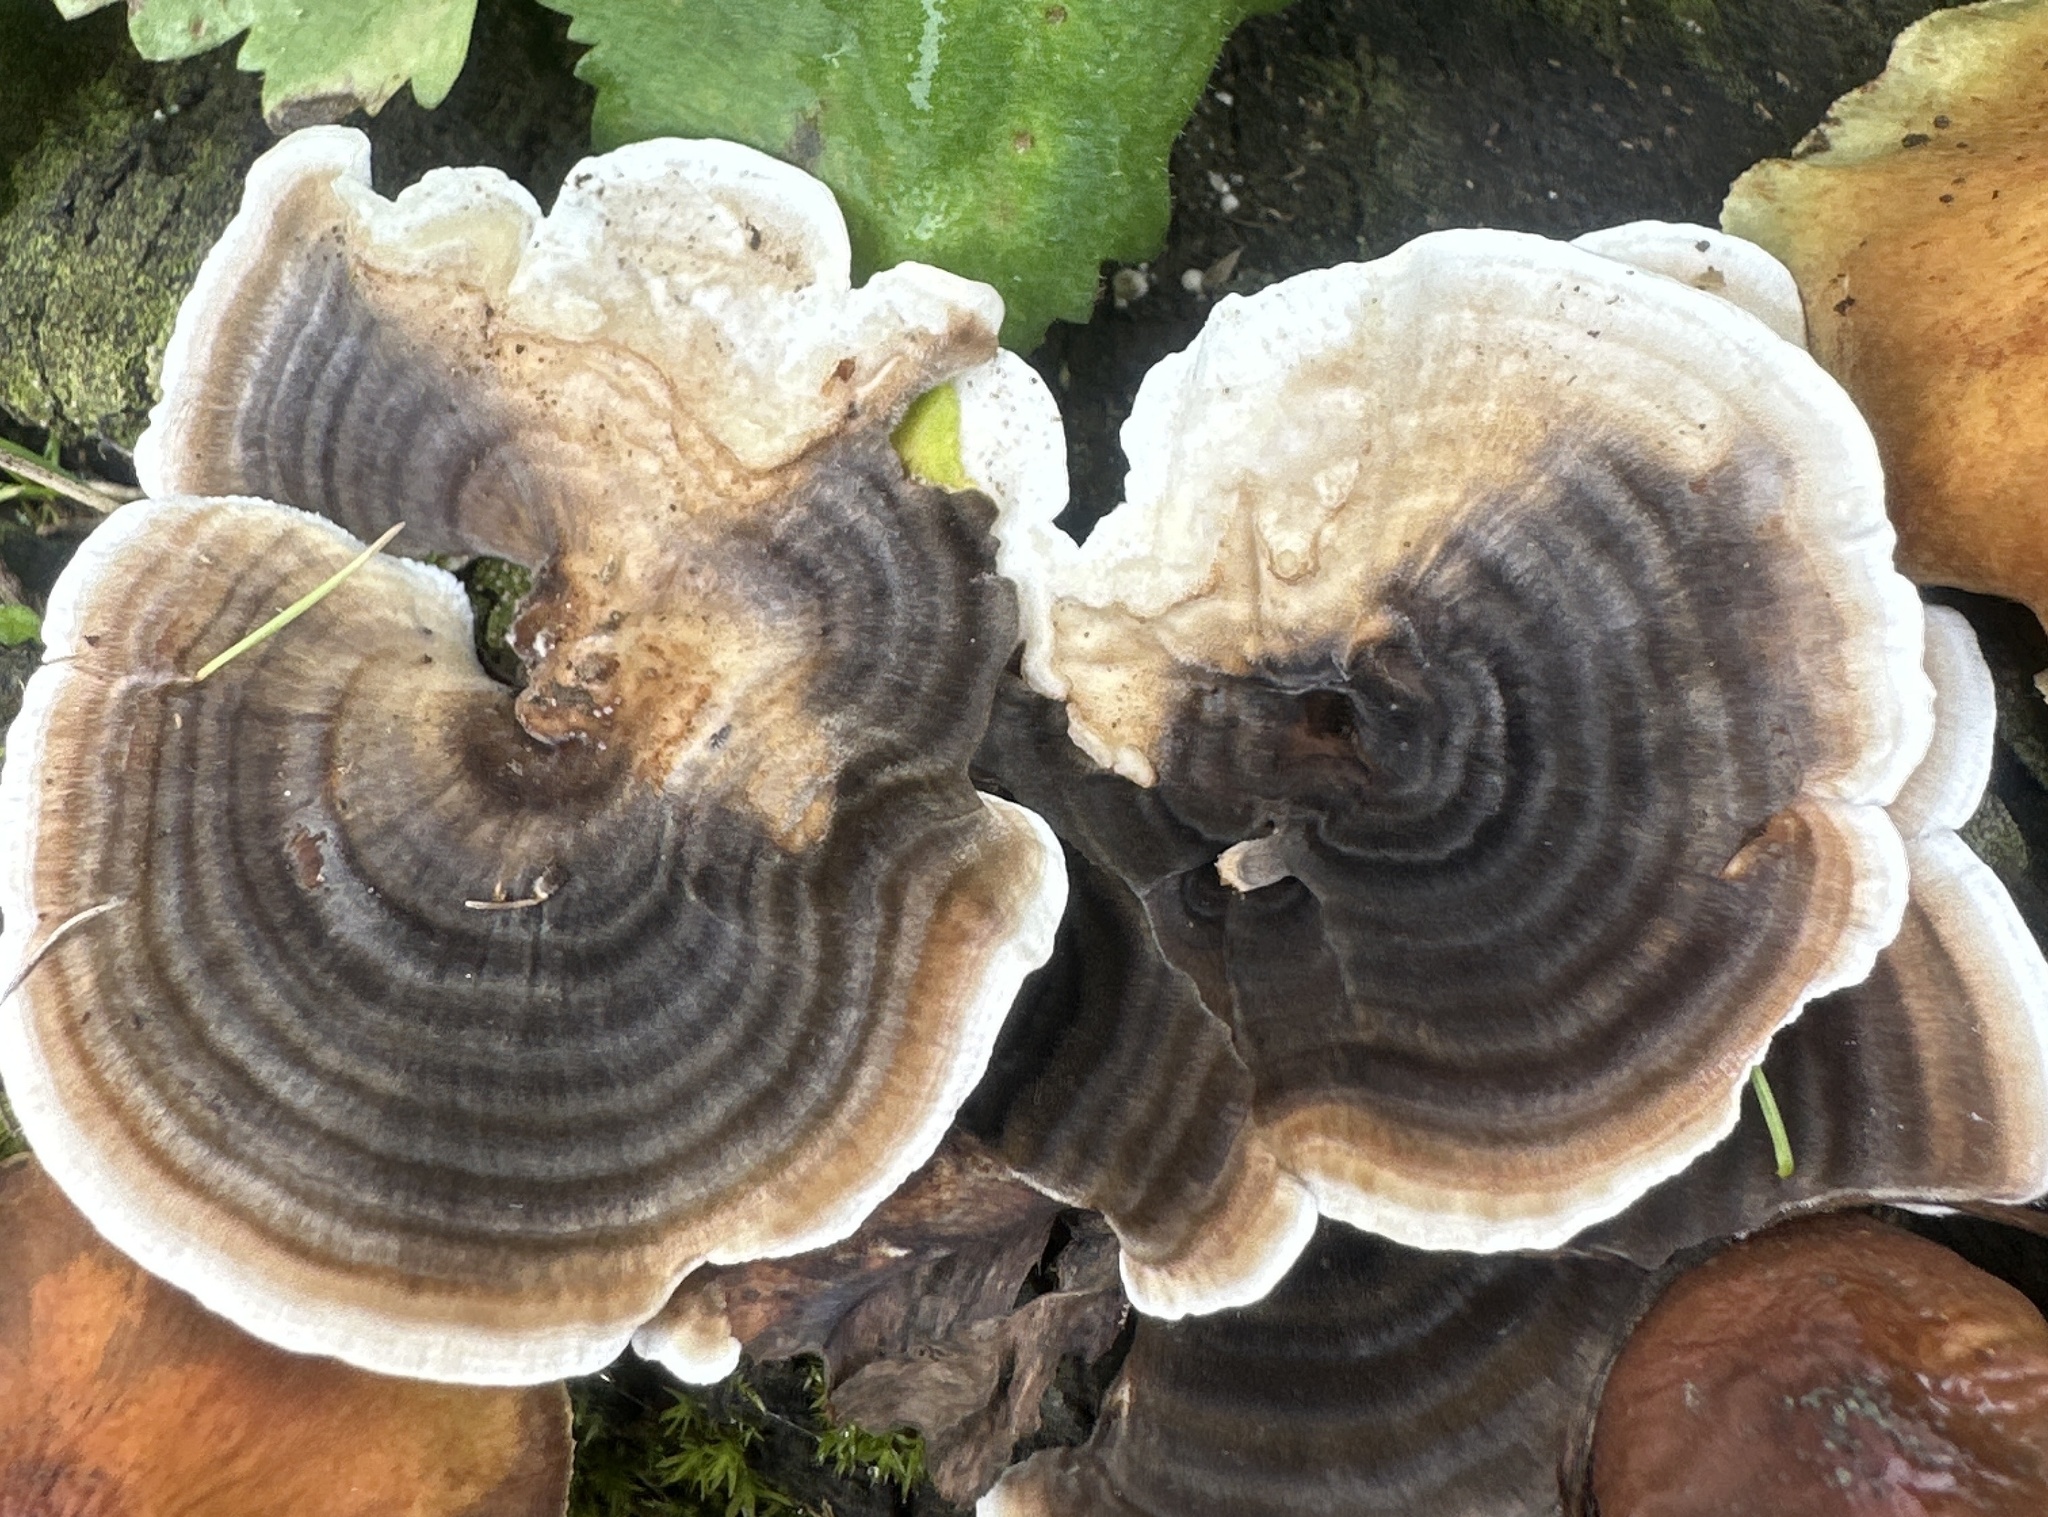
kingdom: Fungi
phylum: Basidiomycota
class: Agaricomycetes
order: Polyporales
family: Polyporaceae
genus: Trametes
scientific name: Trametes versicolor
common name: Turkeytail
